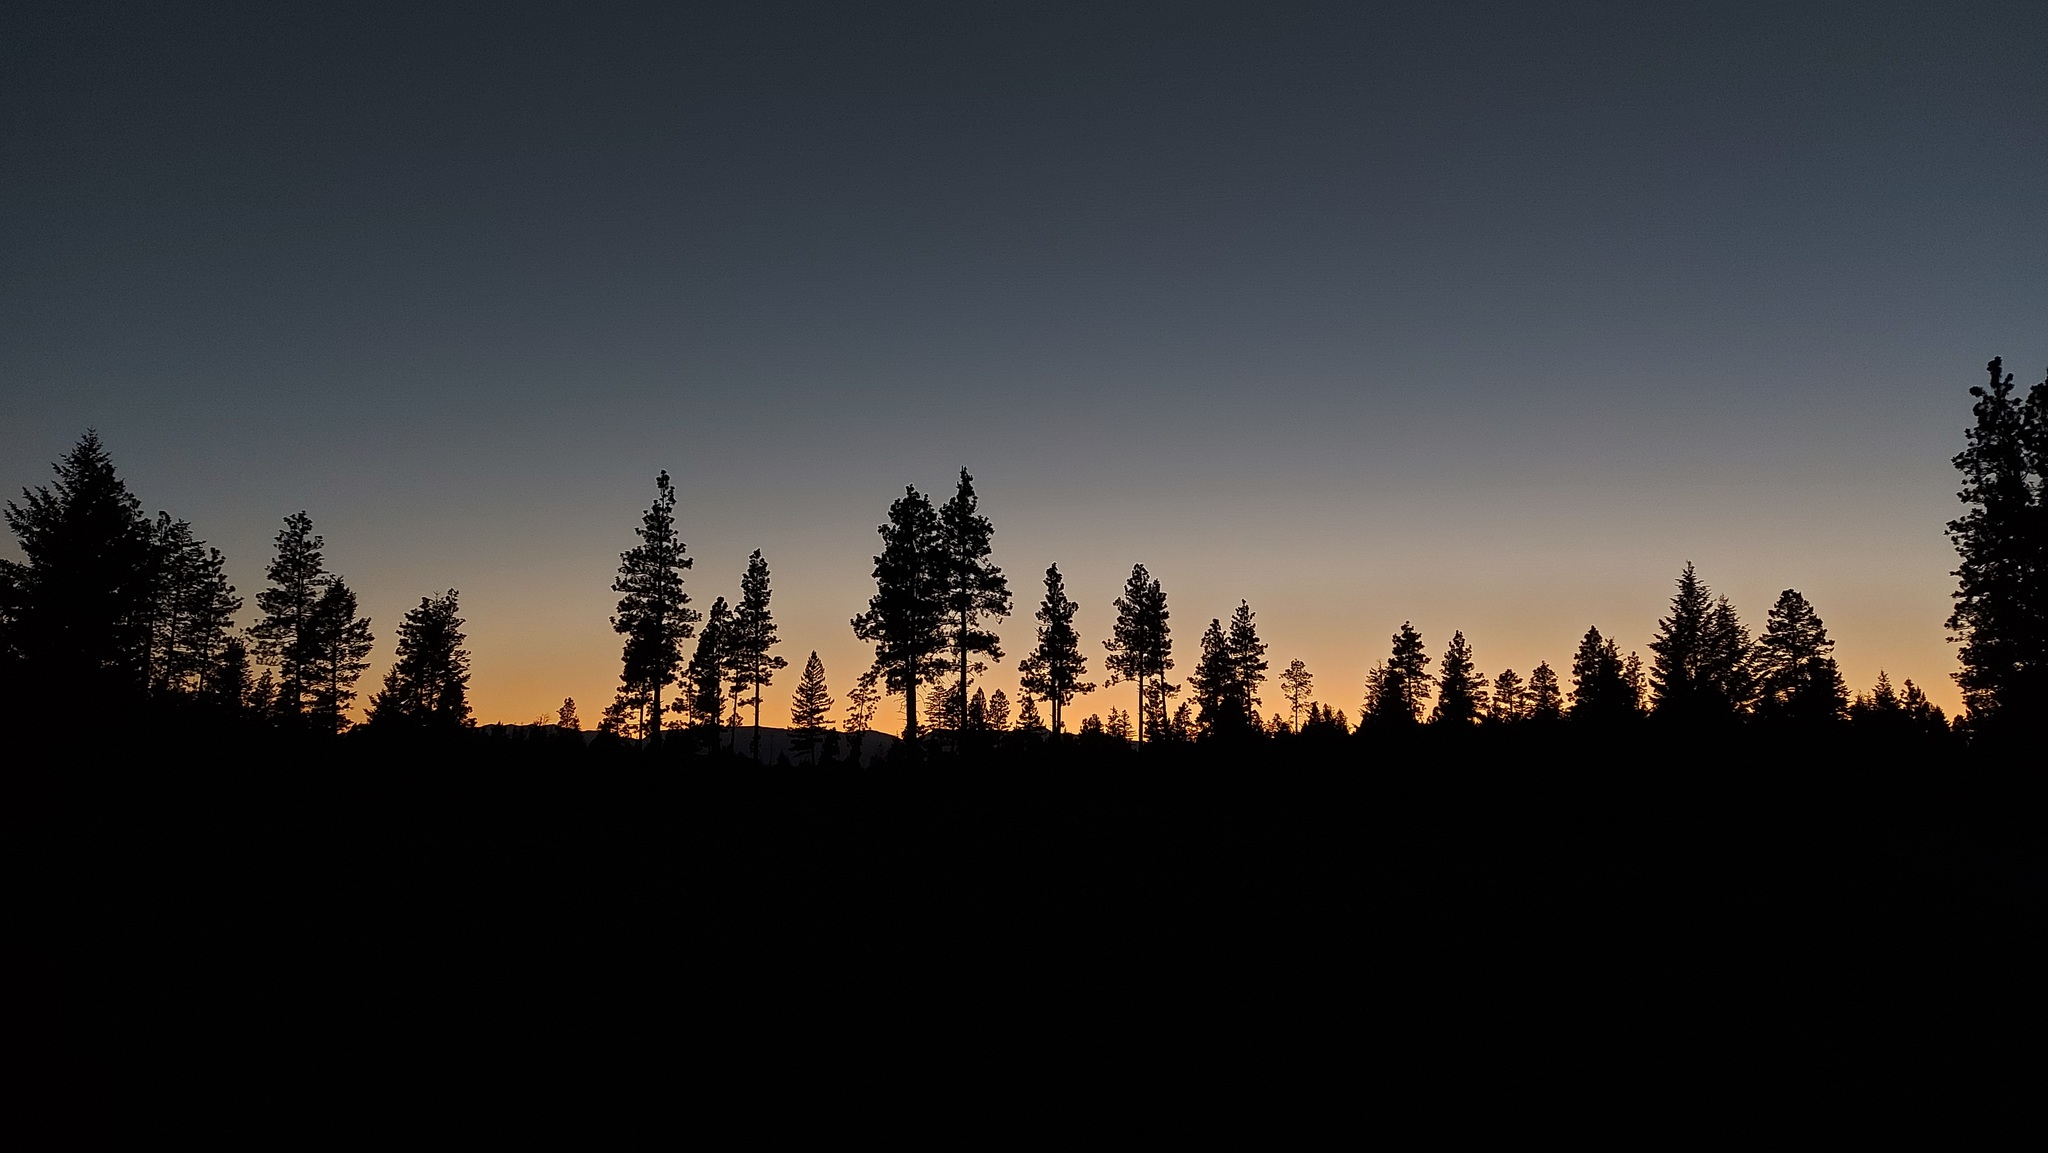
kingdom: Animalia
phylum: Chordata
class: Aves
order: Caprimulgiformes
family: Caprimulgidae
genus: Chordeiles
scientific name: Chordeiles minor
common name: Common nighthawk
